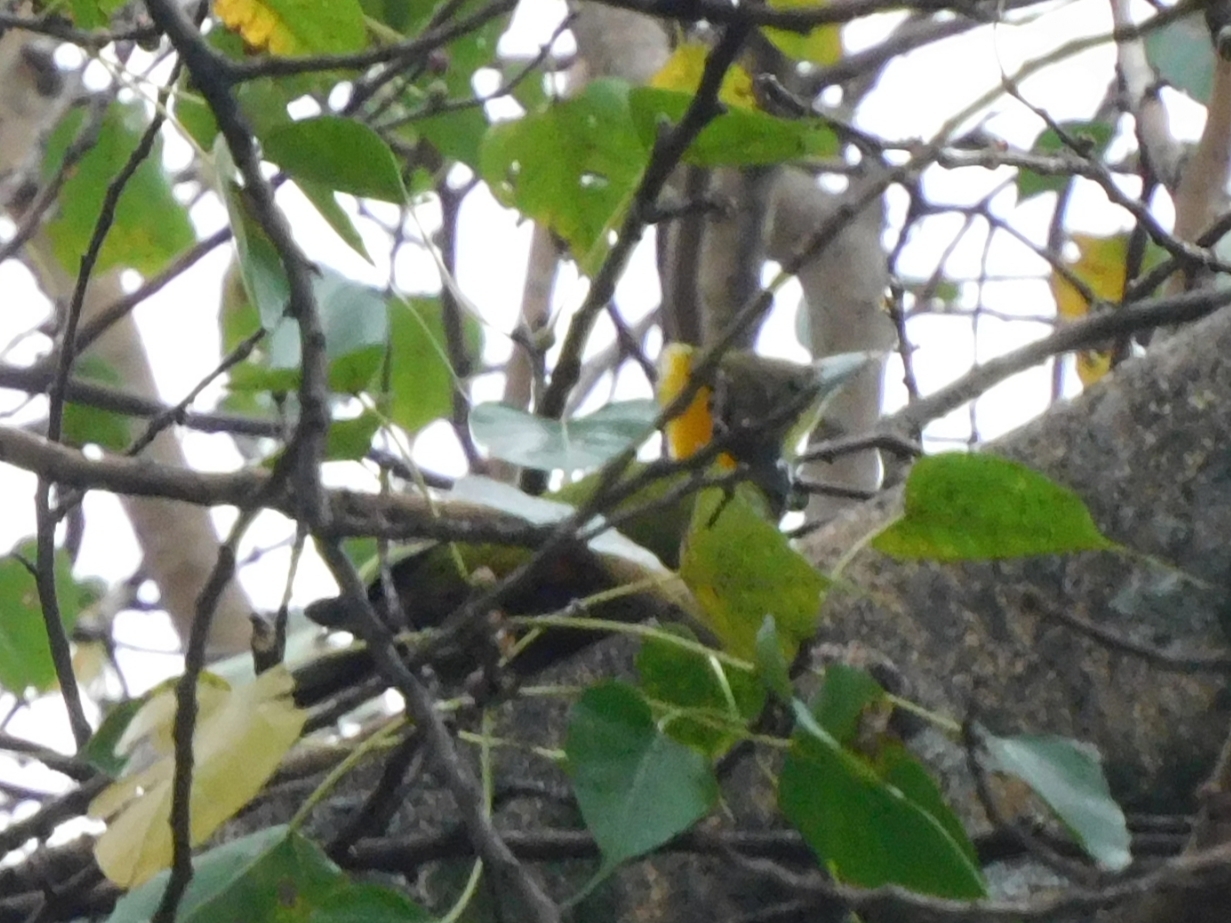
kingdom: Animalia
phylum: Chordata
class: Aves
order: Piciformes
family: Picidae
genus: Chrysophlegma
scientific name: Chrysophlegma flavinucha
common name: Greater yellownape
